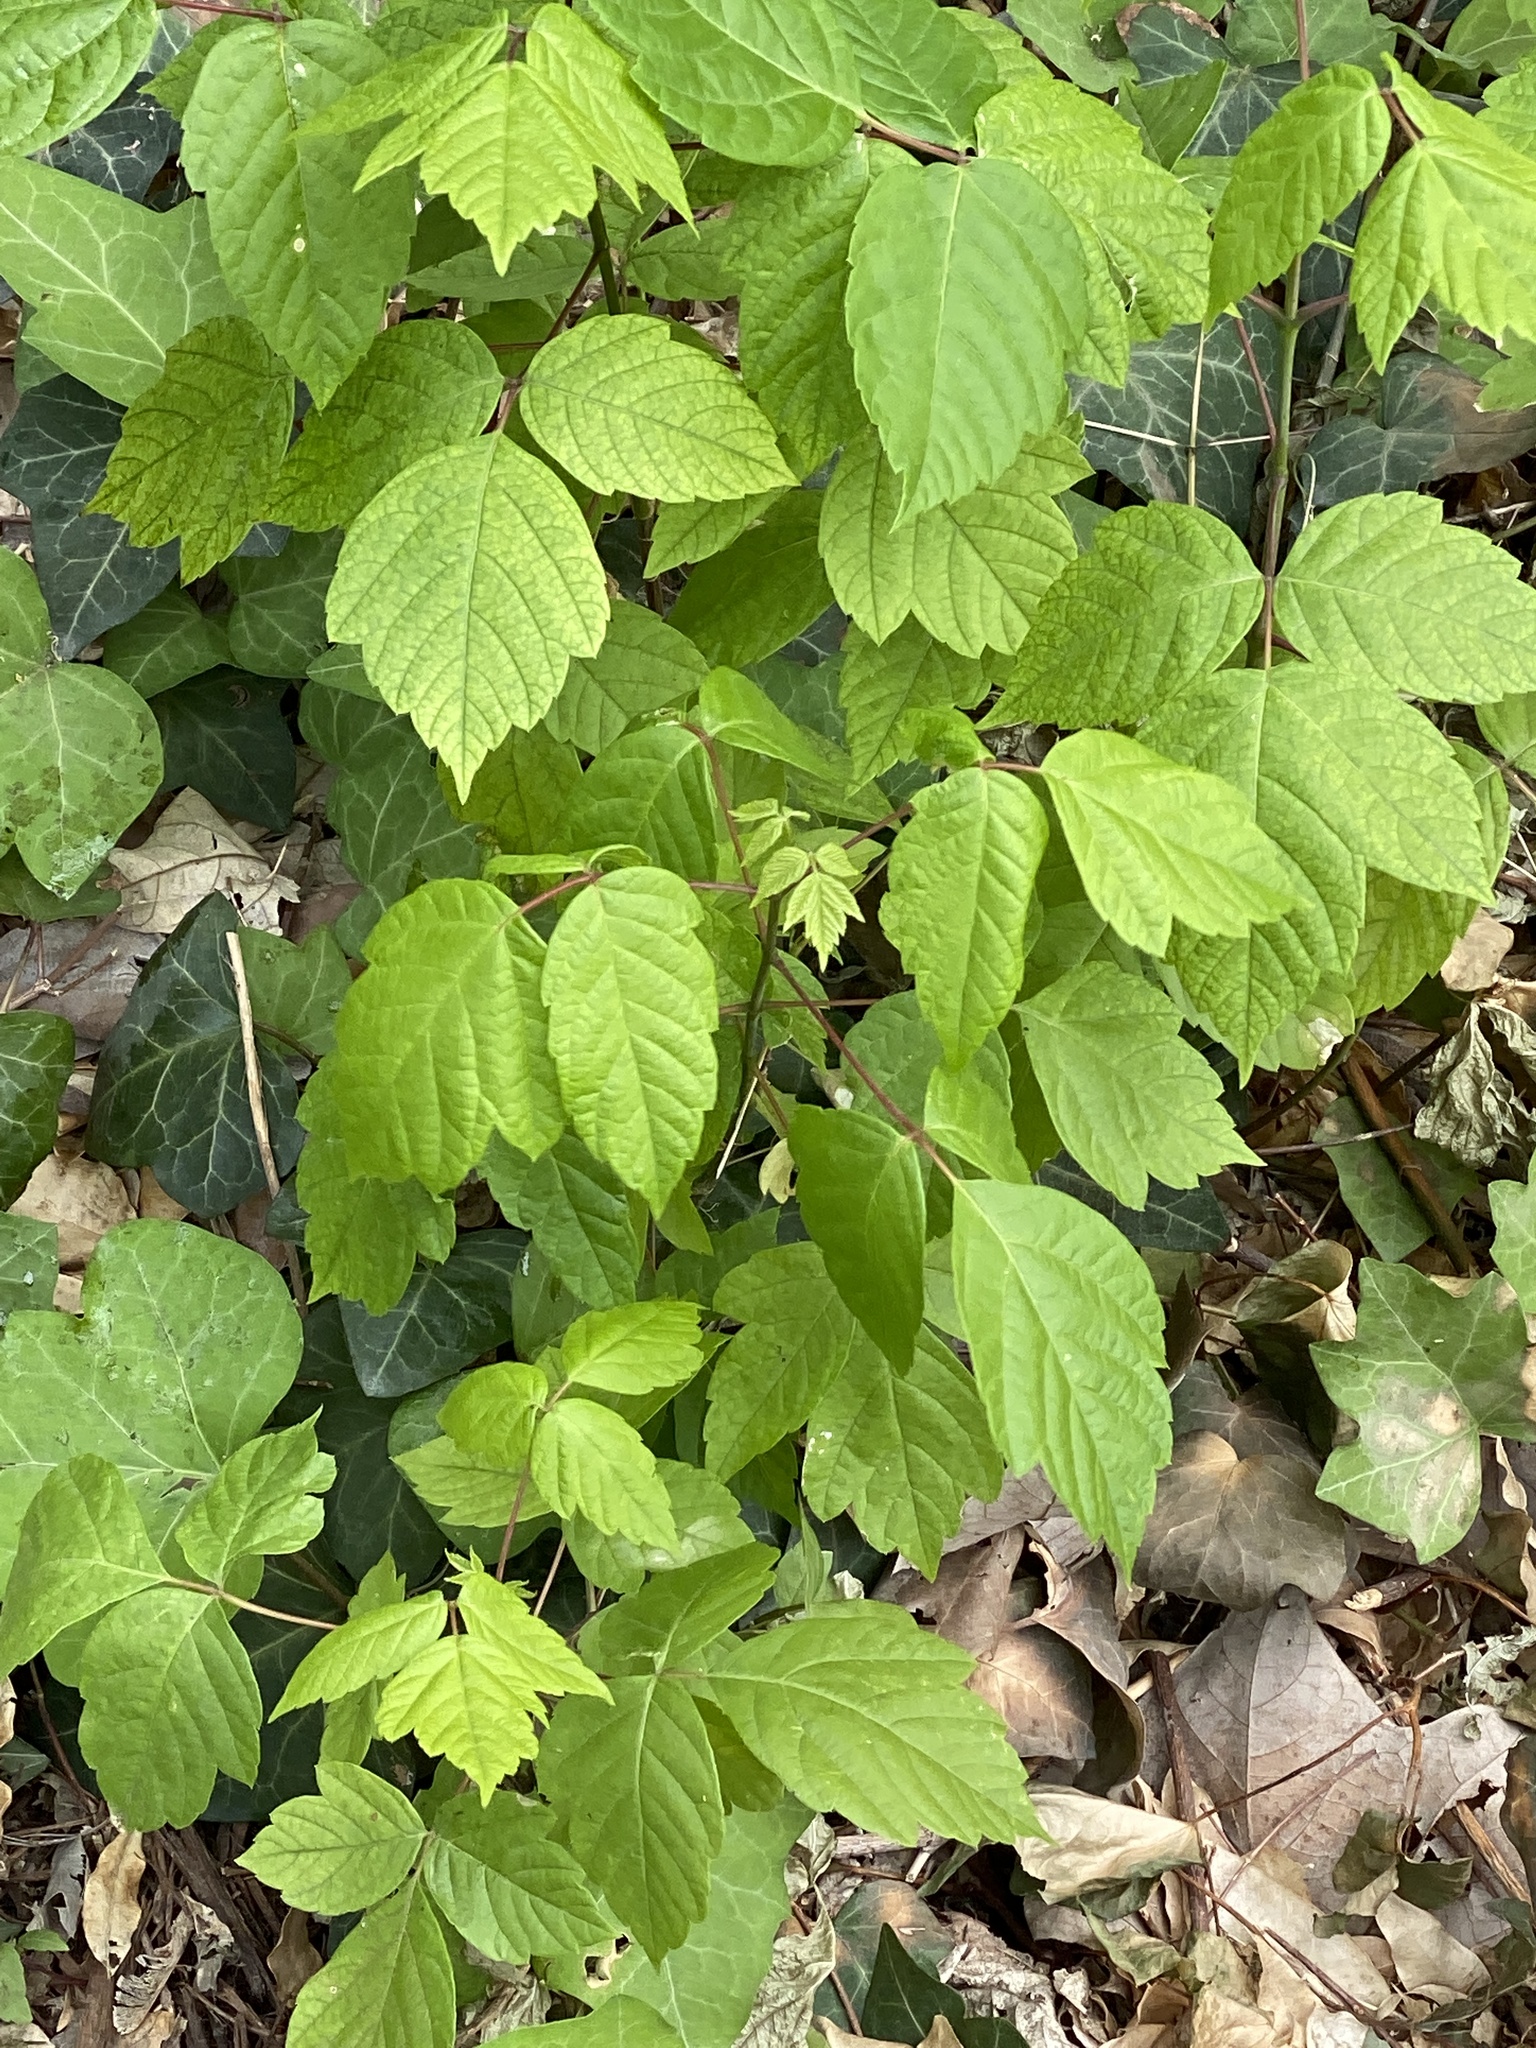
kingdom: Plantae
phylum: Tracheophyta
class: Magnoliopsida
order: Sapindales
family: Sapindaceae
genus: Acer
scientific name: Acer negundo
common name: Ashleaf maple
